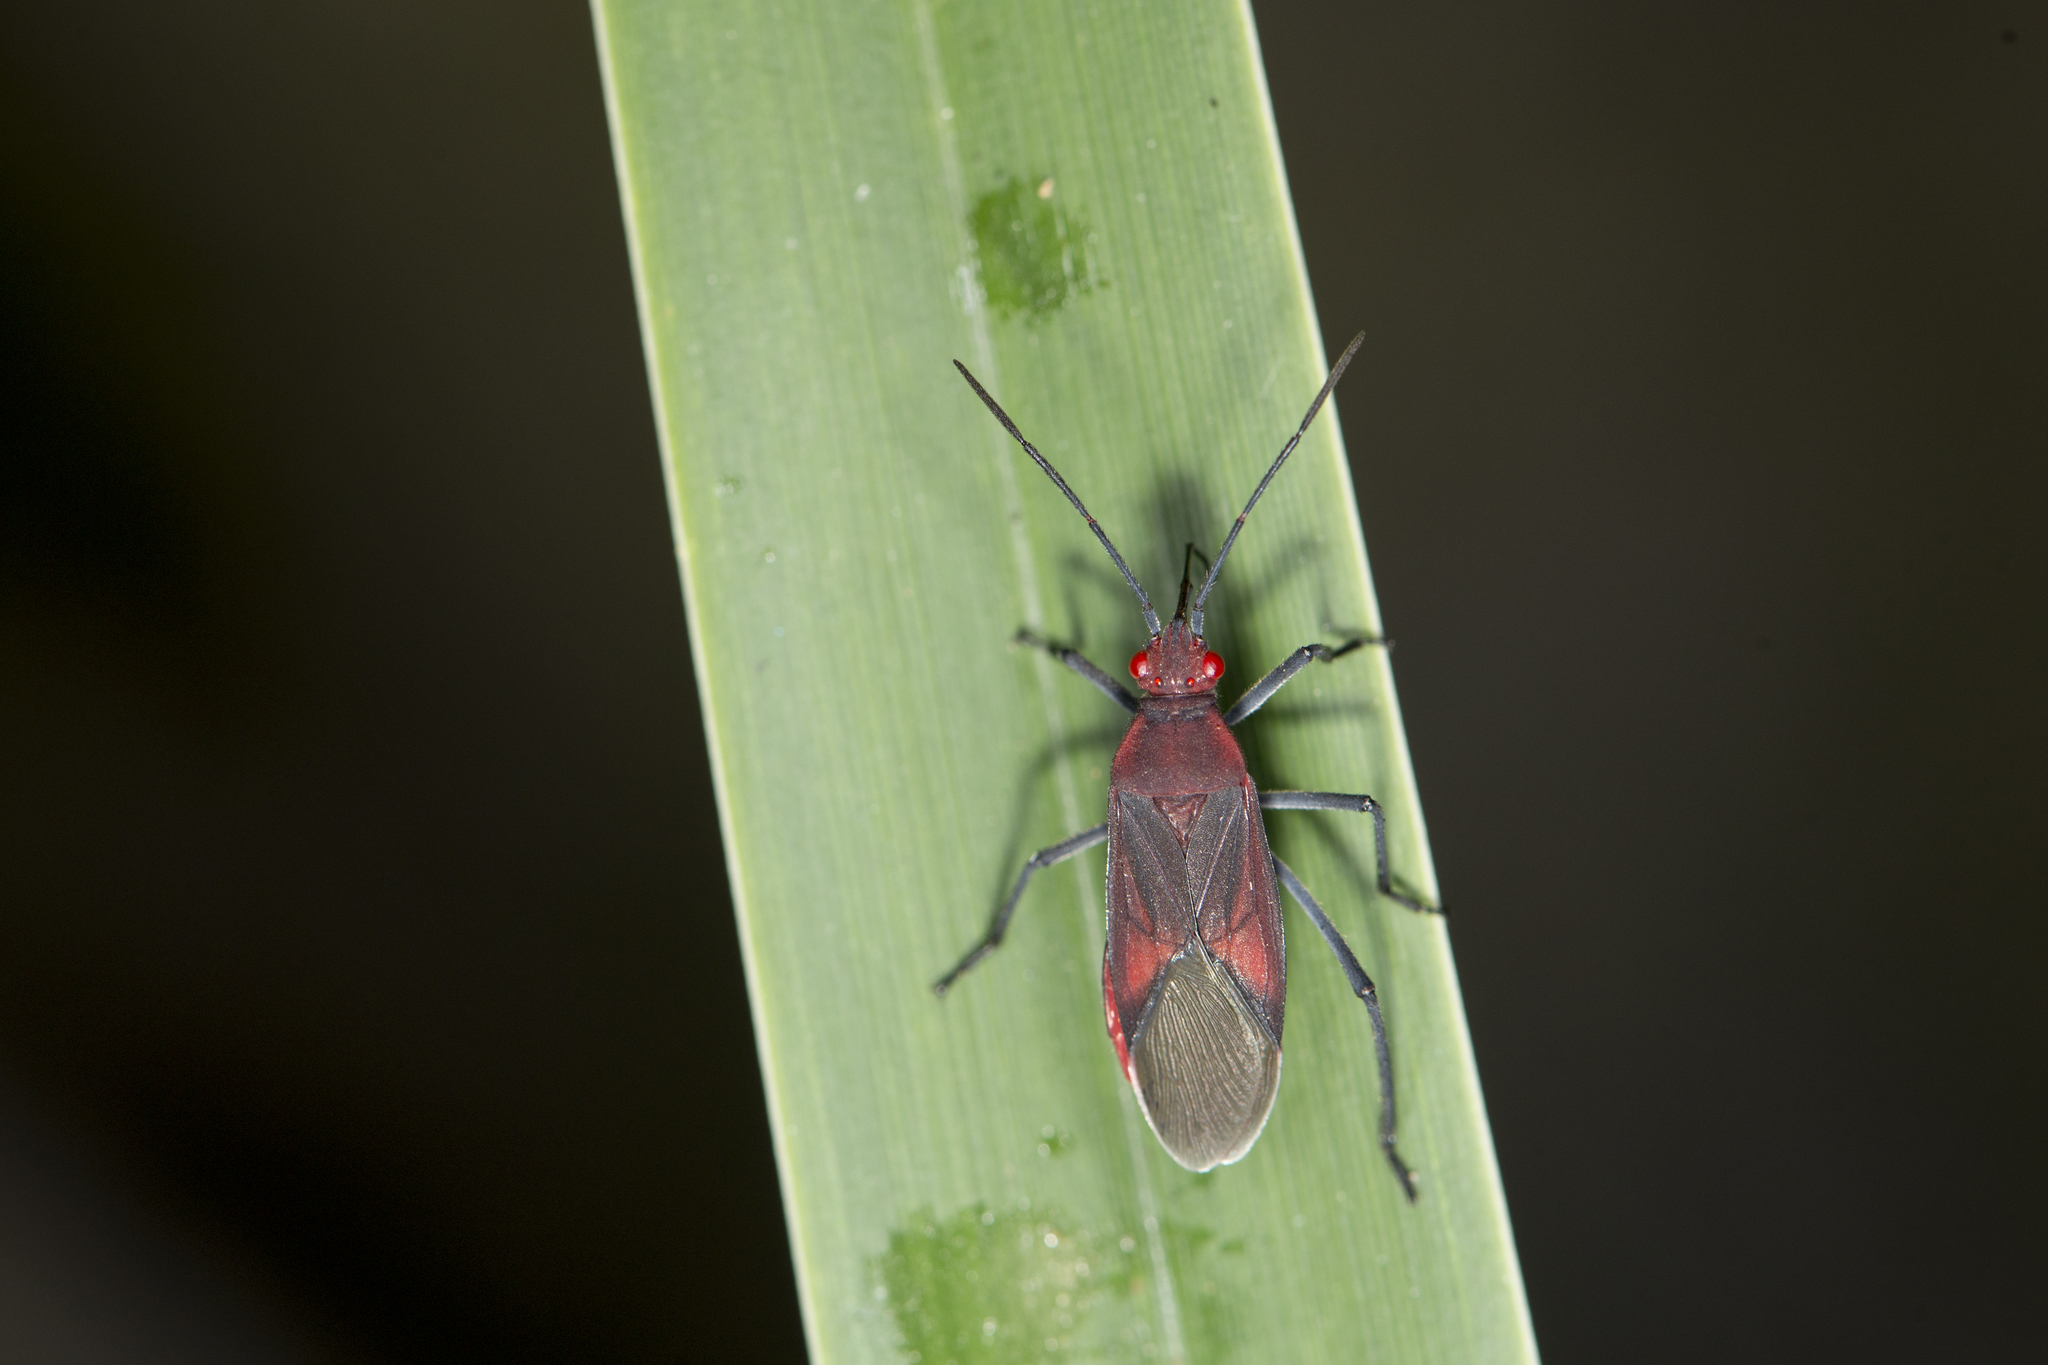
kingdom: Animalia
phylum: Arthropoda
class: Insecta
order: Hemiptera
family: Rhopalidae
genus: Leptocoris
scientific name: Leptocoris vicinus
